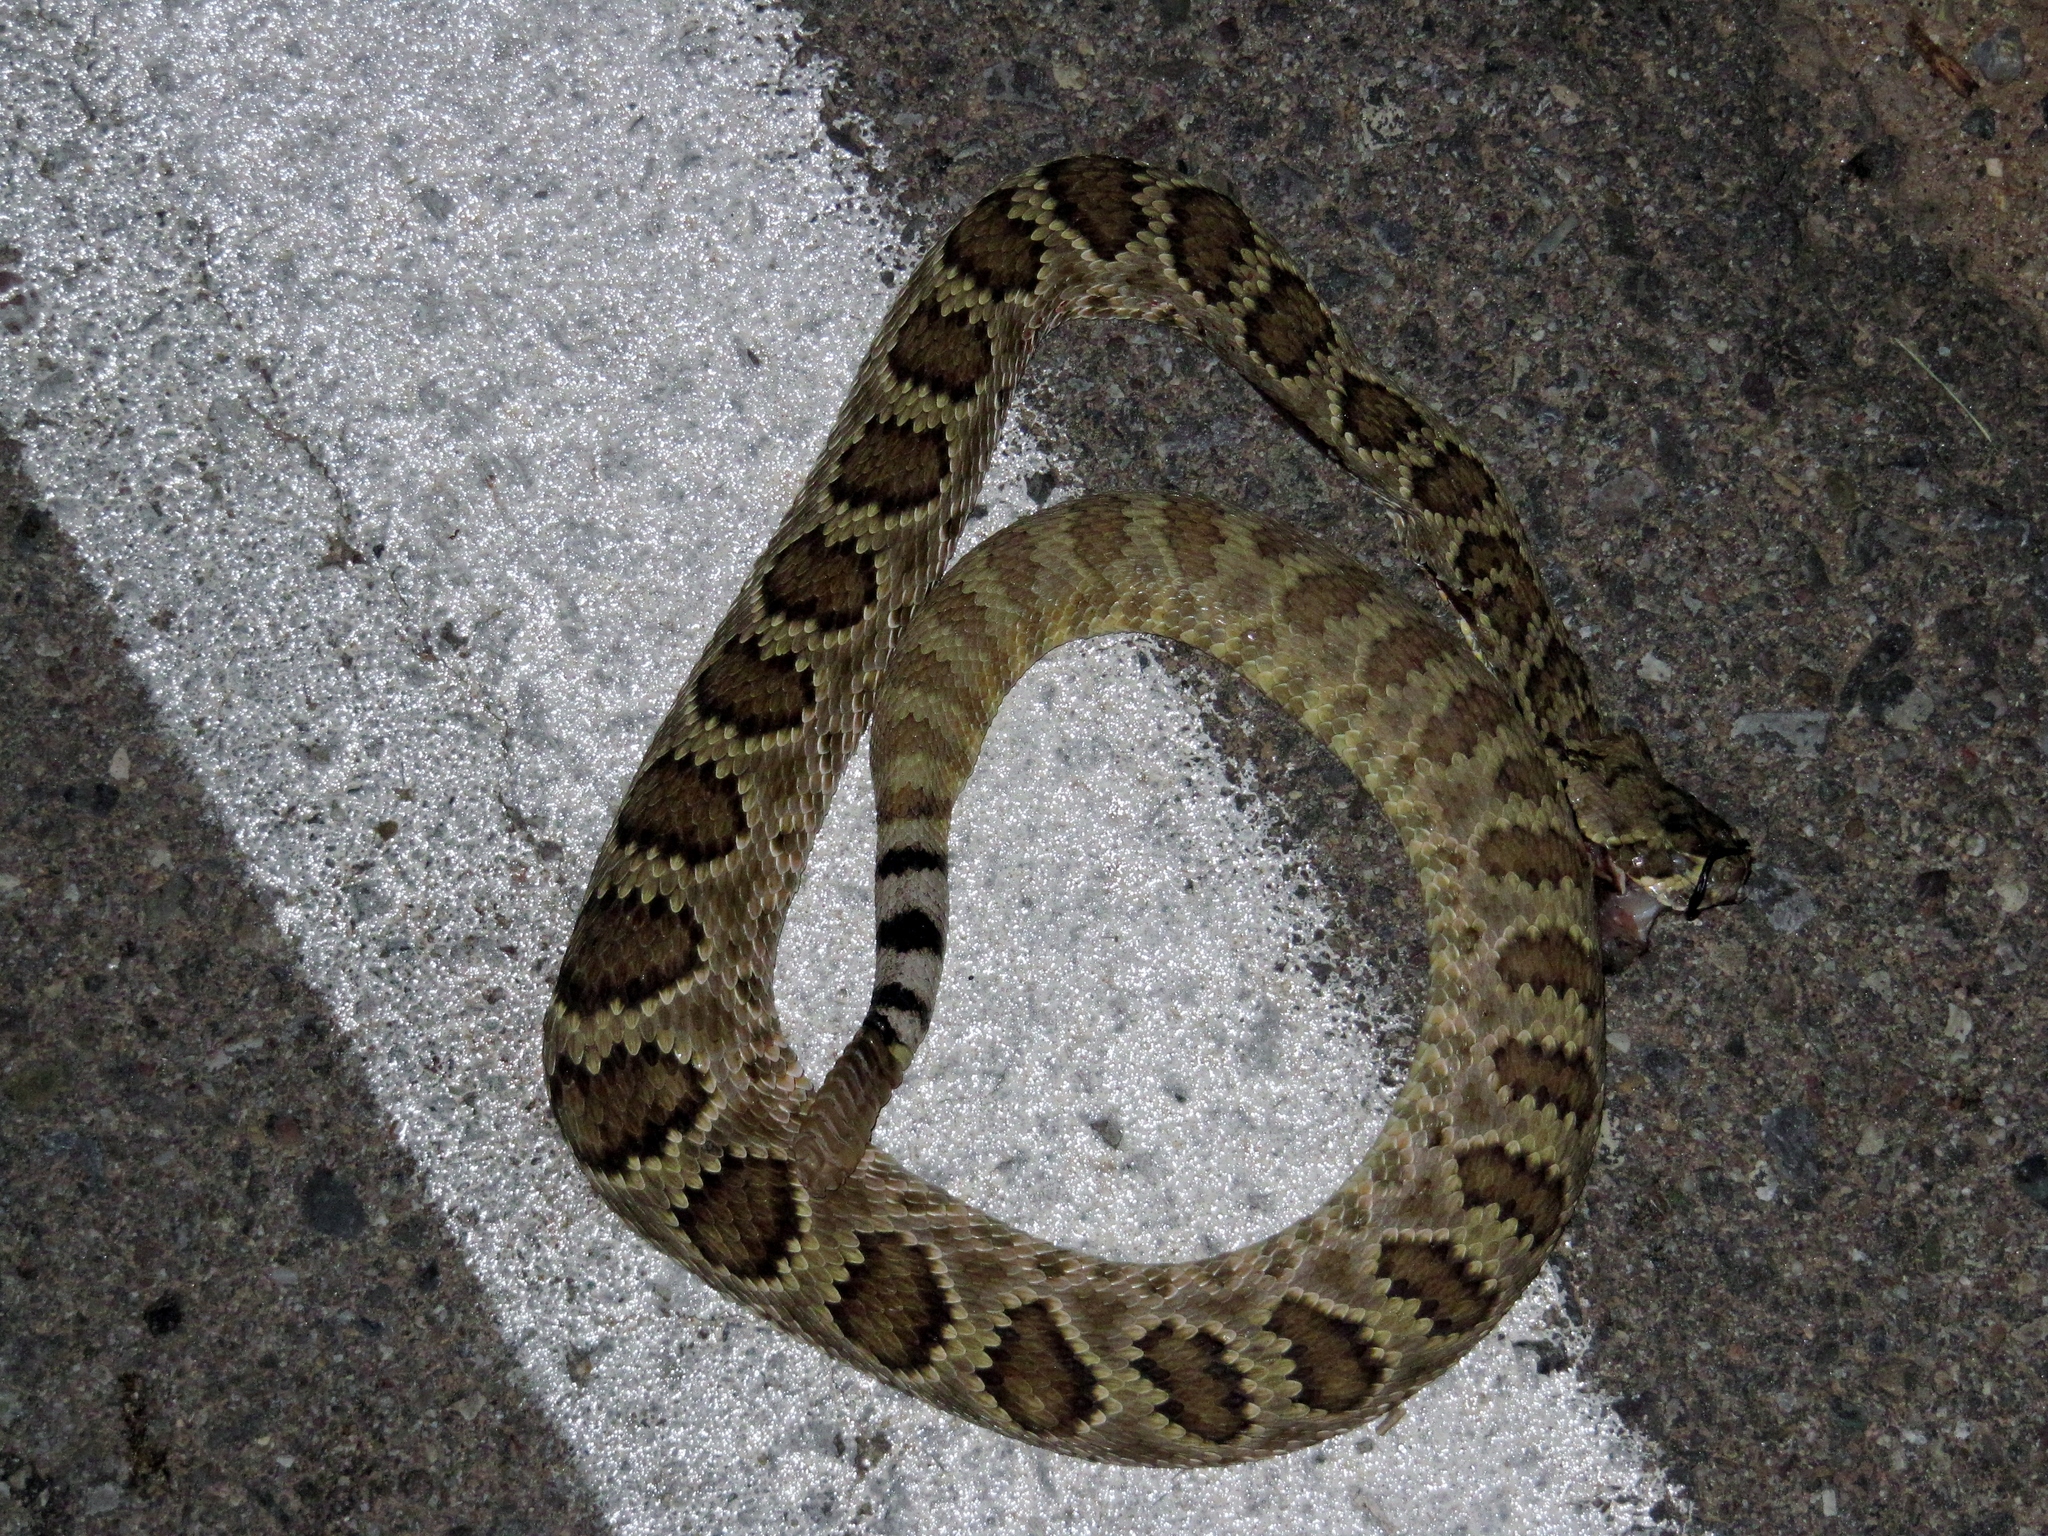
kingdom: Animalia
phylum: Chordata
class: Squamata
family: Viperidae
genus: Crotalus
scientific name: Crotalus scutulatus
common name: Scutulatus
